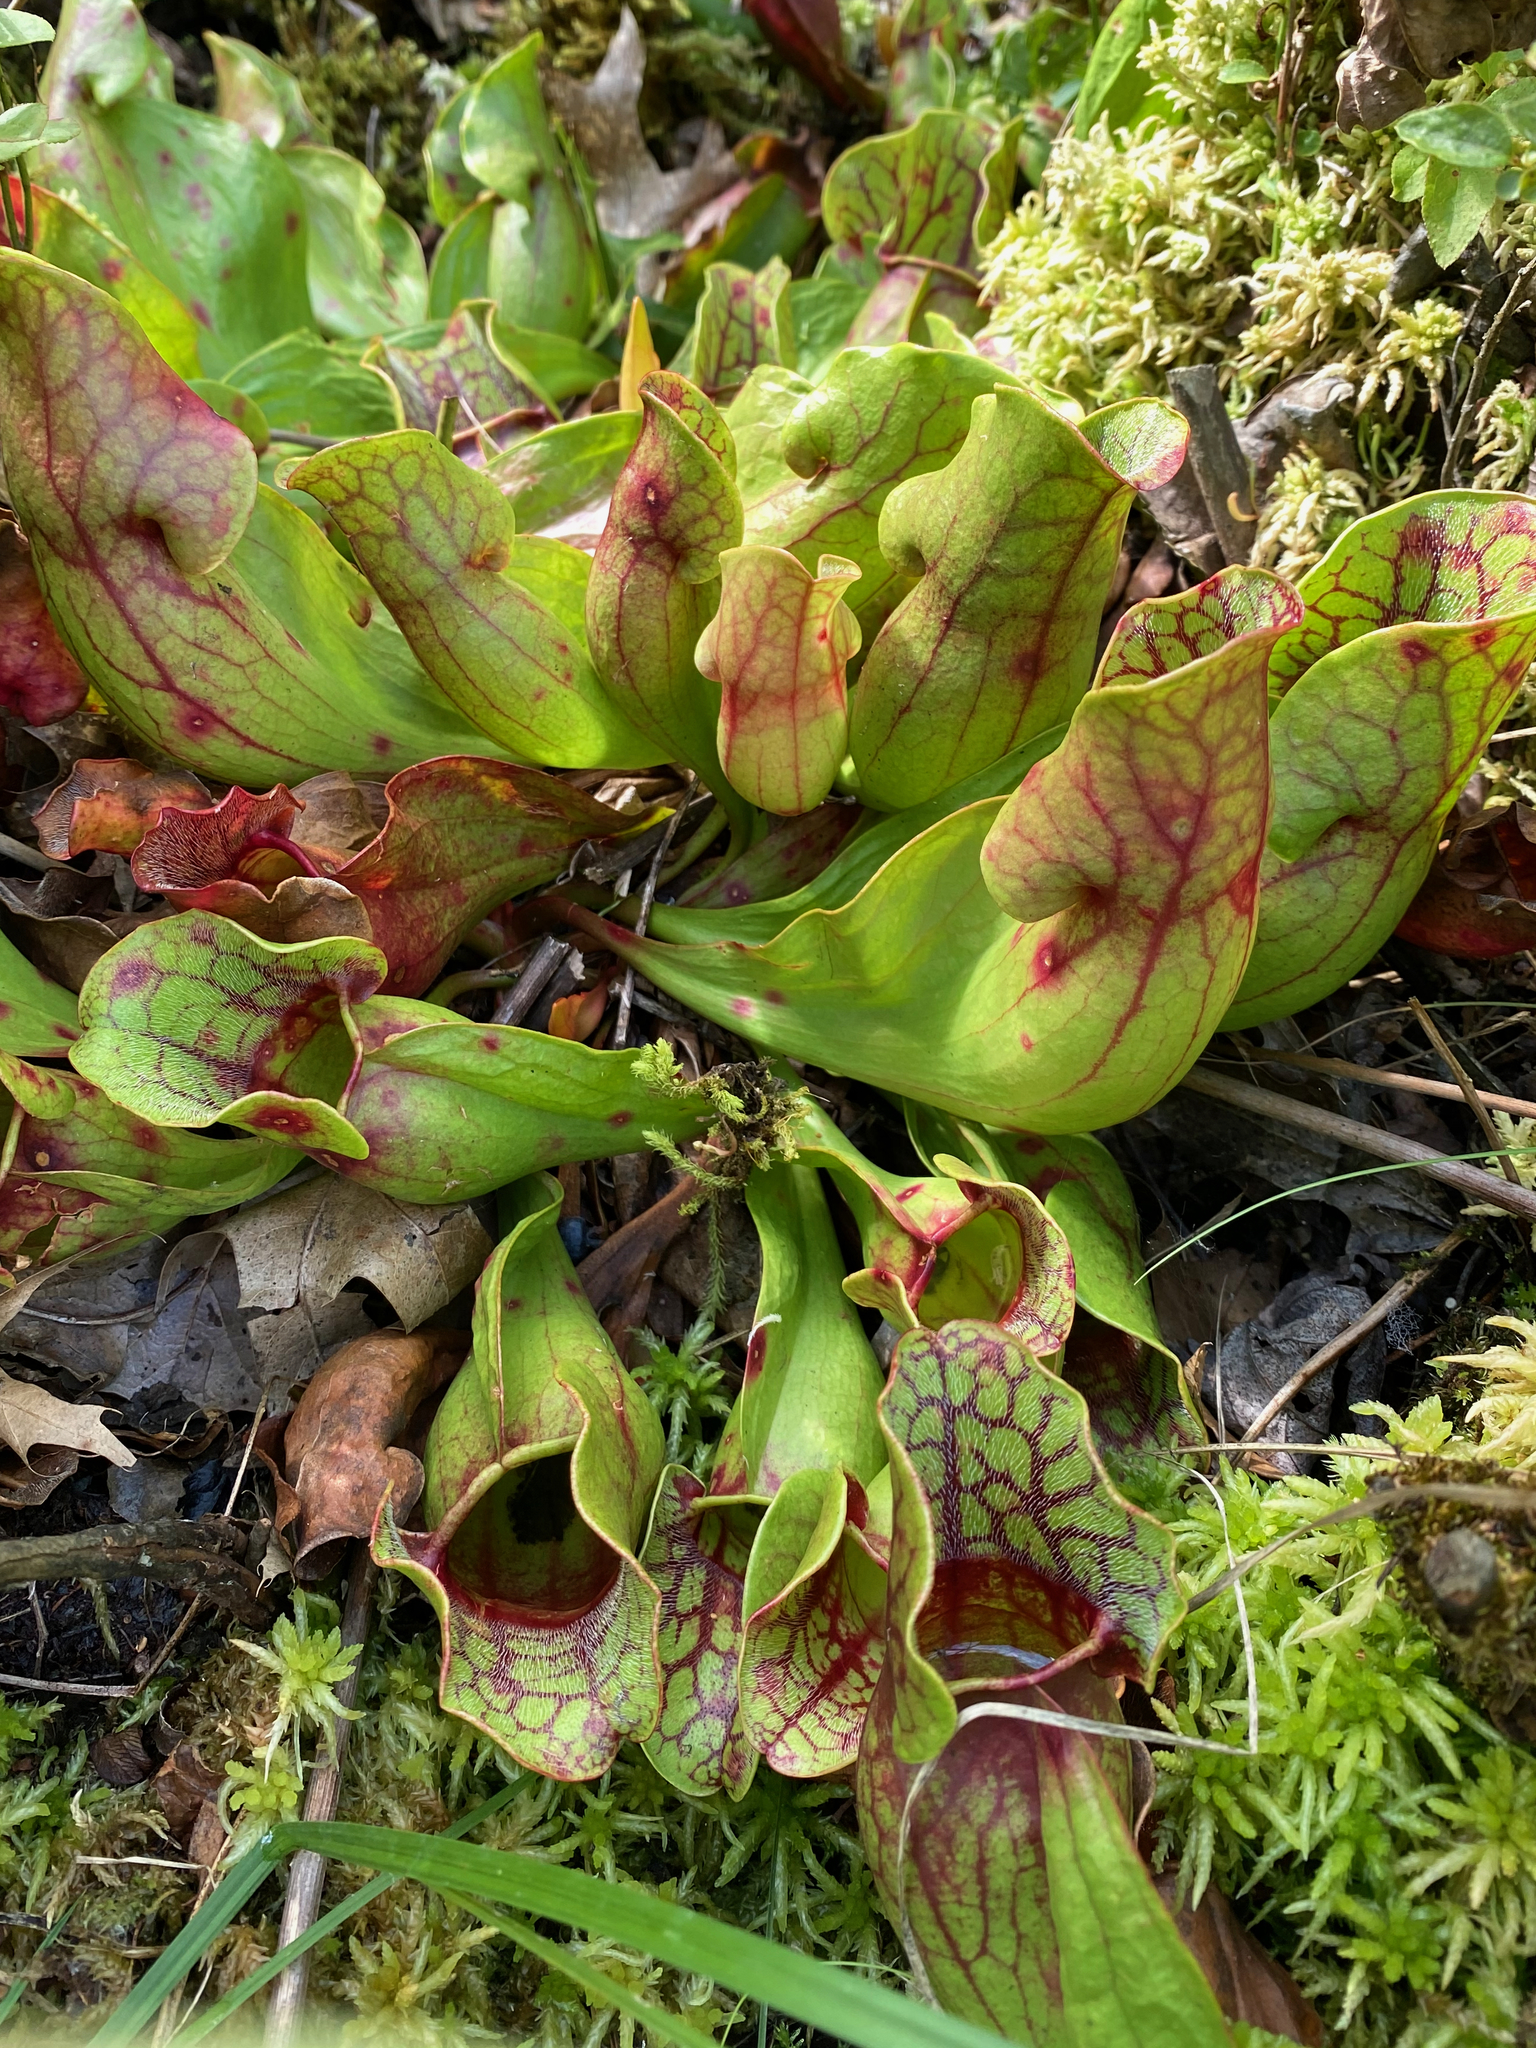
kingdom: Plantae
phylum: Tracheophyta
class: Magnoliopsida
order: Ericales
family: Sarraceniaceae
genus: Sarracenia
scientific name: Sarracenia purpurea
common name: Pitcherplant
